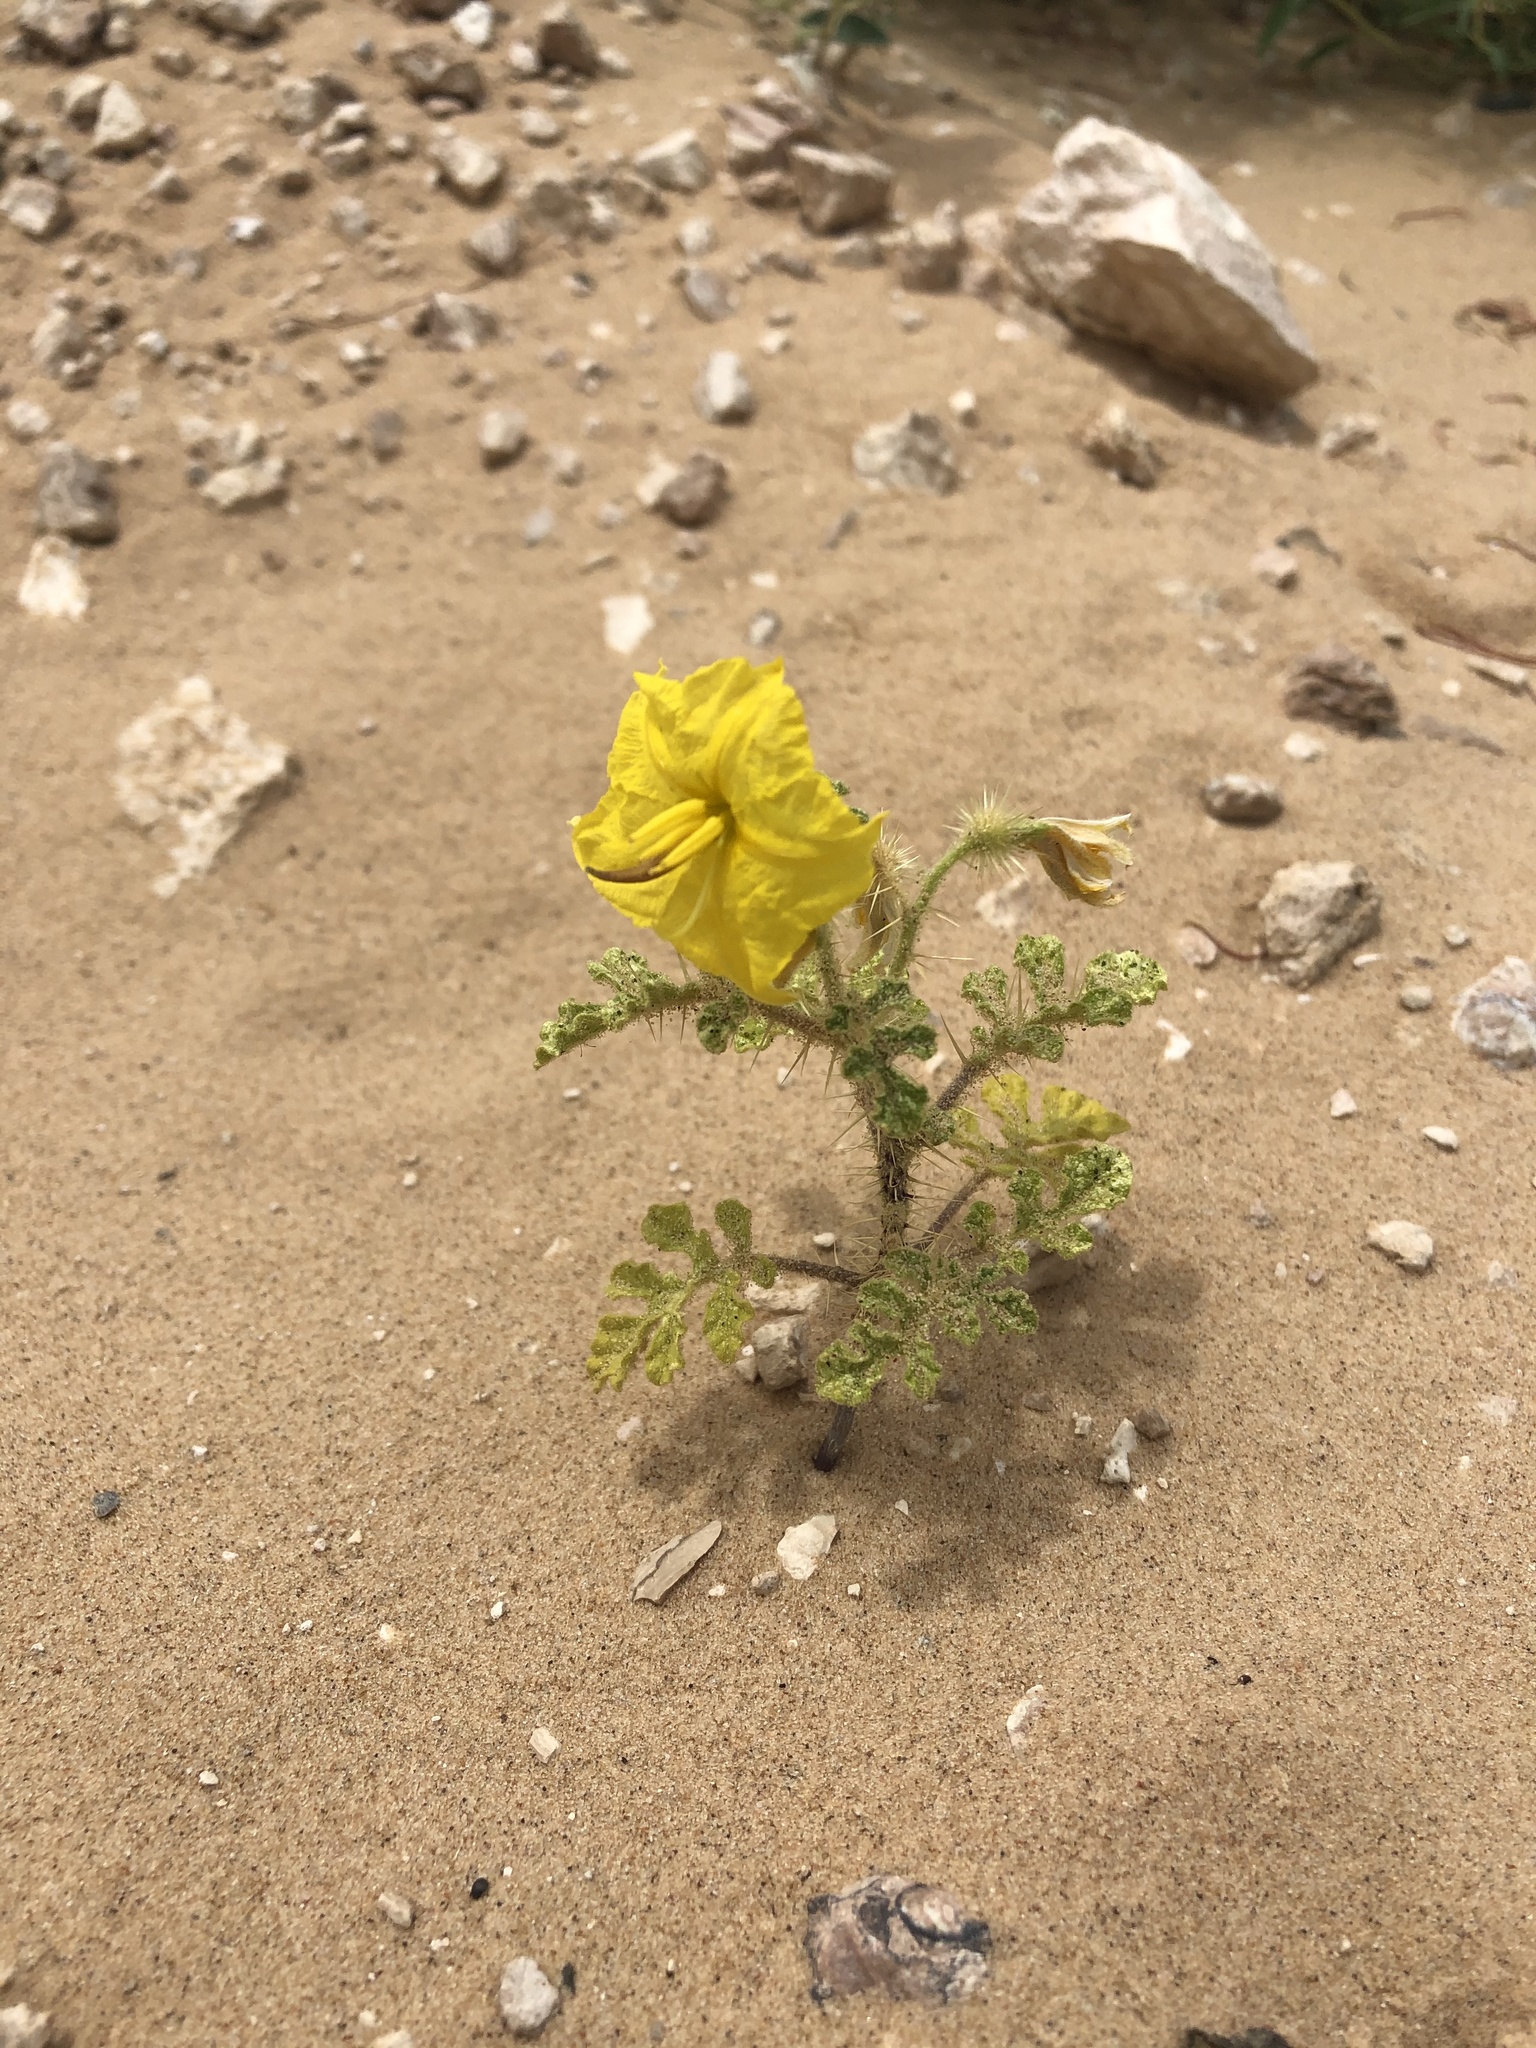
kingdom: Plantae
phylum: Tracheophyta
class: Magnoliopsida
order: Solanales
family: Solanaceae
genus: Solanum
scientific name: Solanum angustifolium
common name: Buffalobur nightshade
